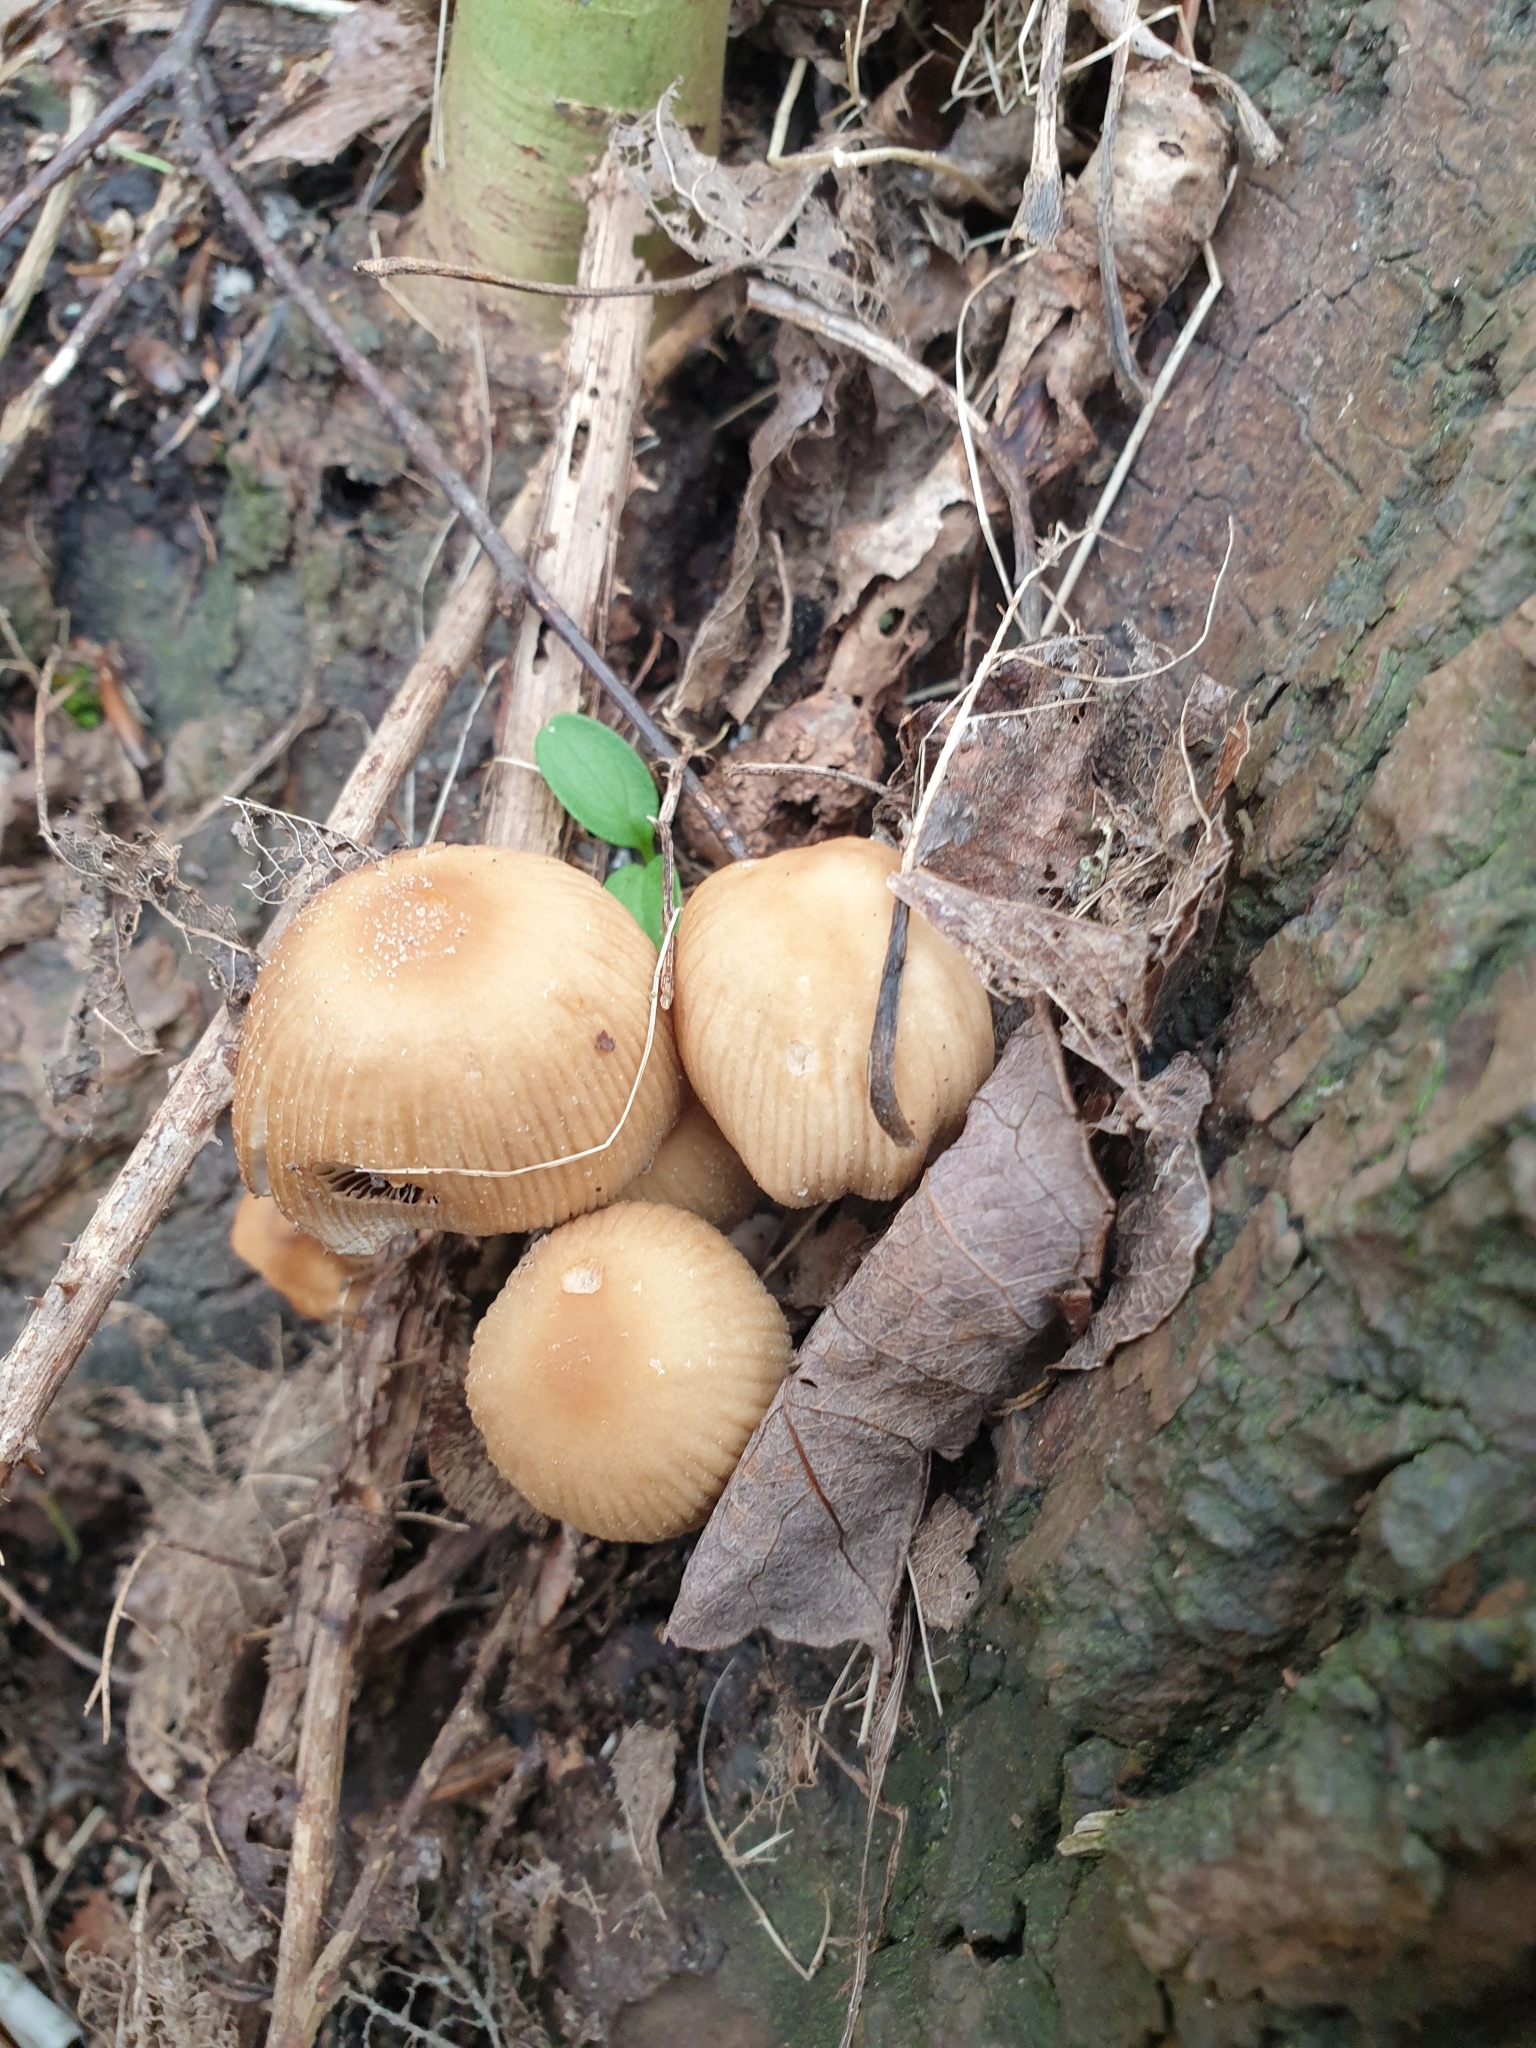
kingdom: Fungi
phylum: Basidiomycota
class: Agaricomycetes
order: Agaricales
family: Psathyrellaceae
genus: Coprinellus
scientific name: Coprinellus micaceus
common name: Glistening ink-cap
